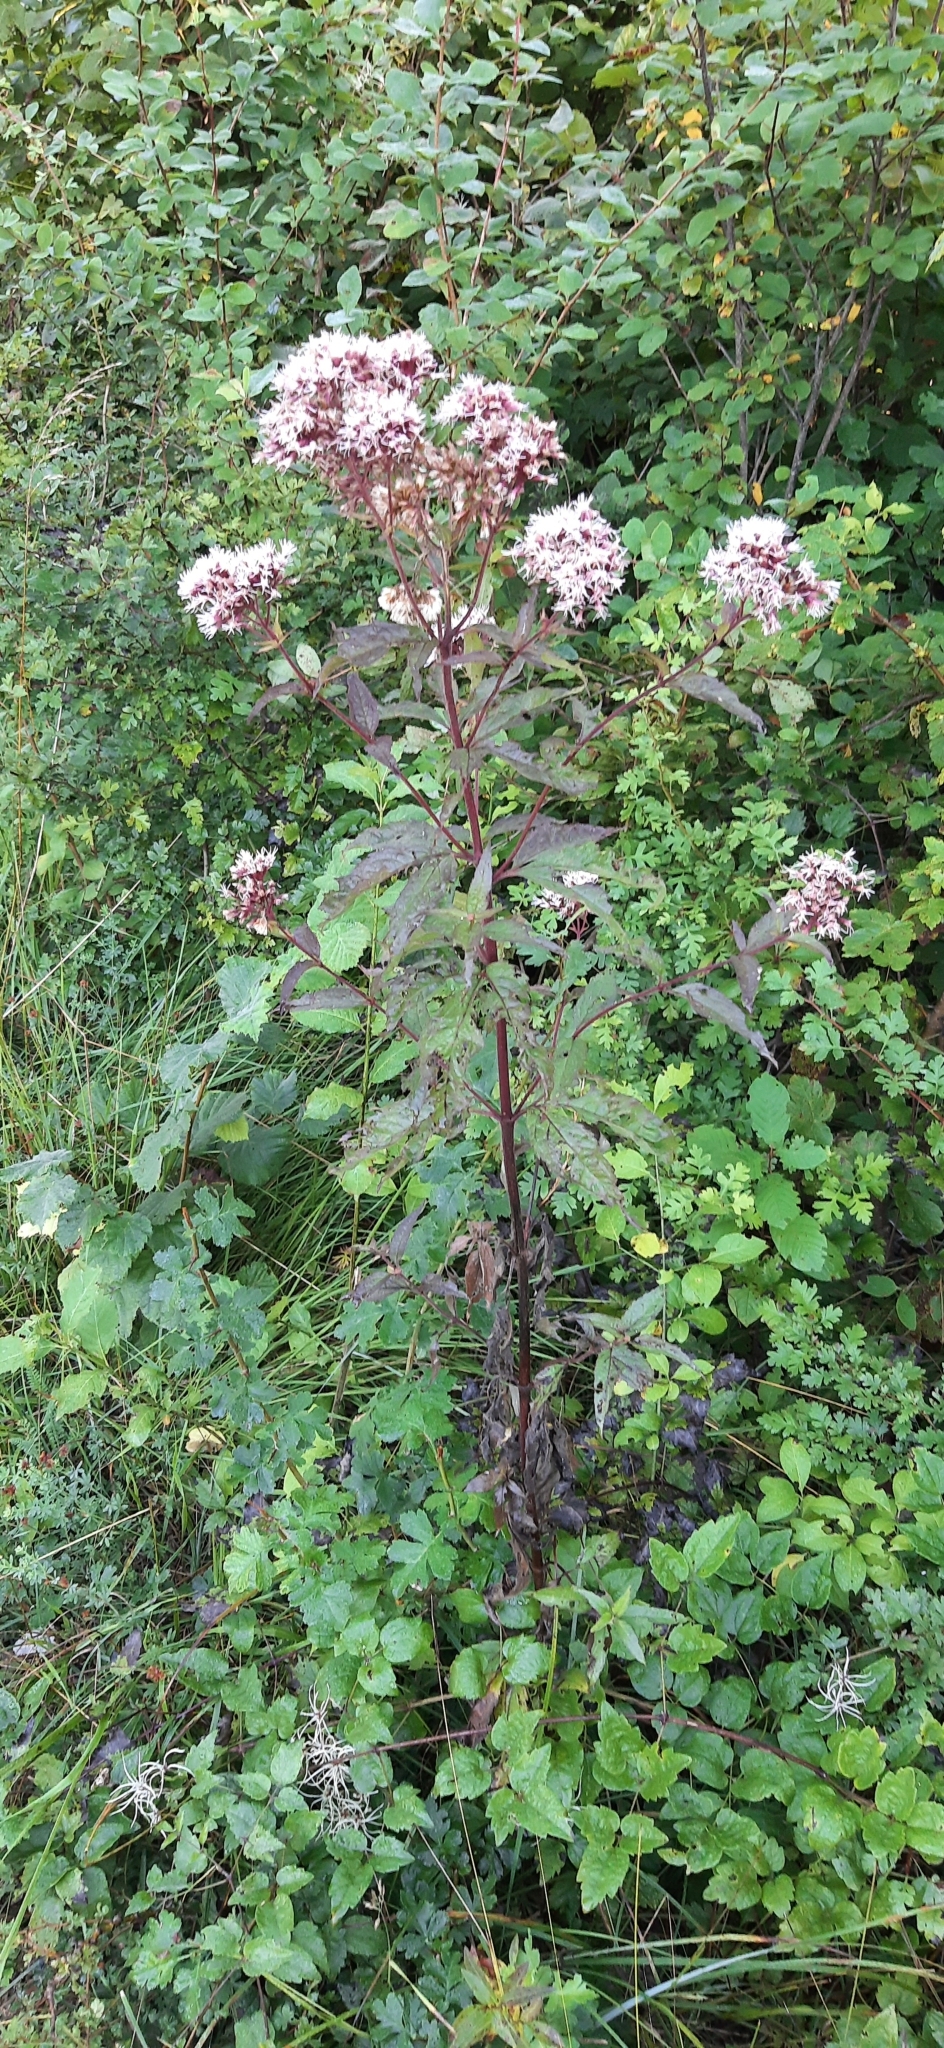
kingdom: Plantae
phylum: Tracheophyta
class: Magnoliopsida
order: Asterales
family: Asteraceae
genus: Eupatorium
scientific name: Eupatorium cannabinum
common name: Hemp-agrimony
